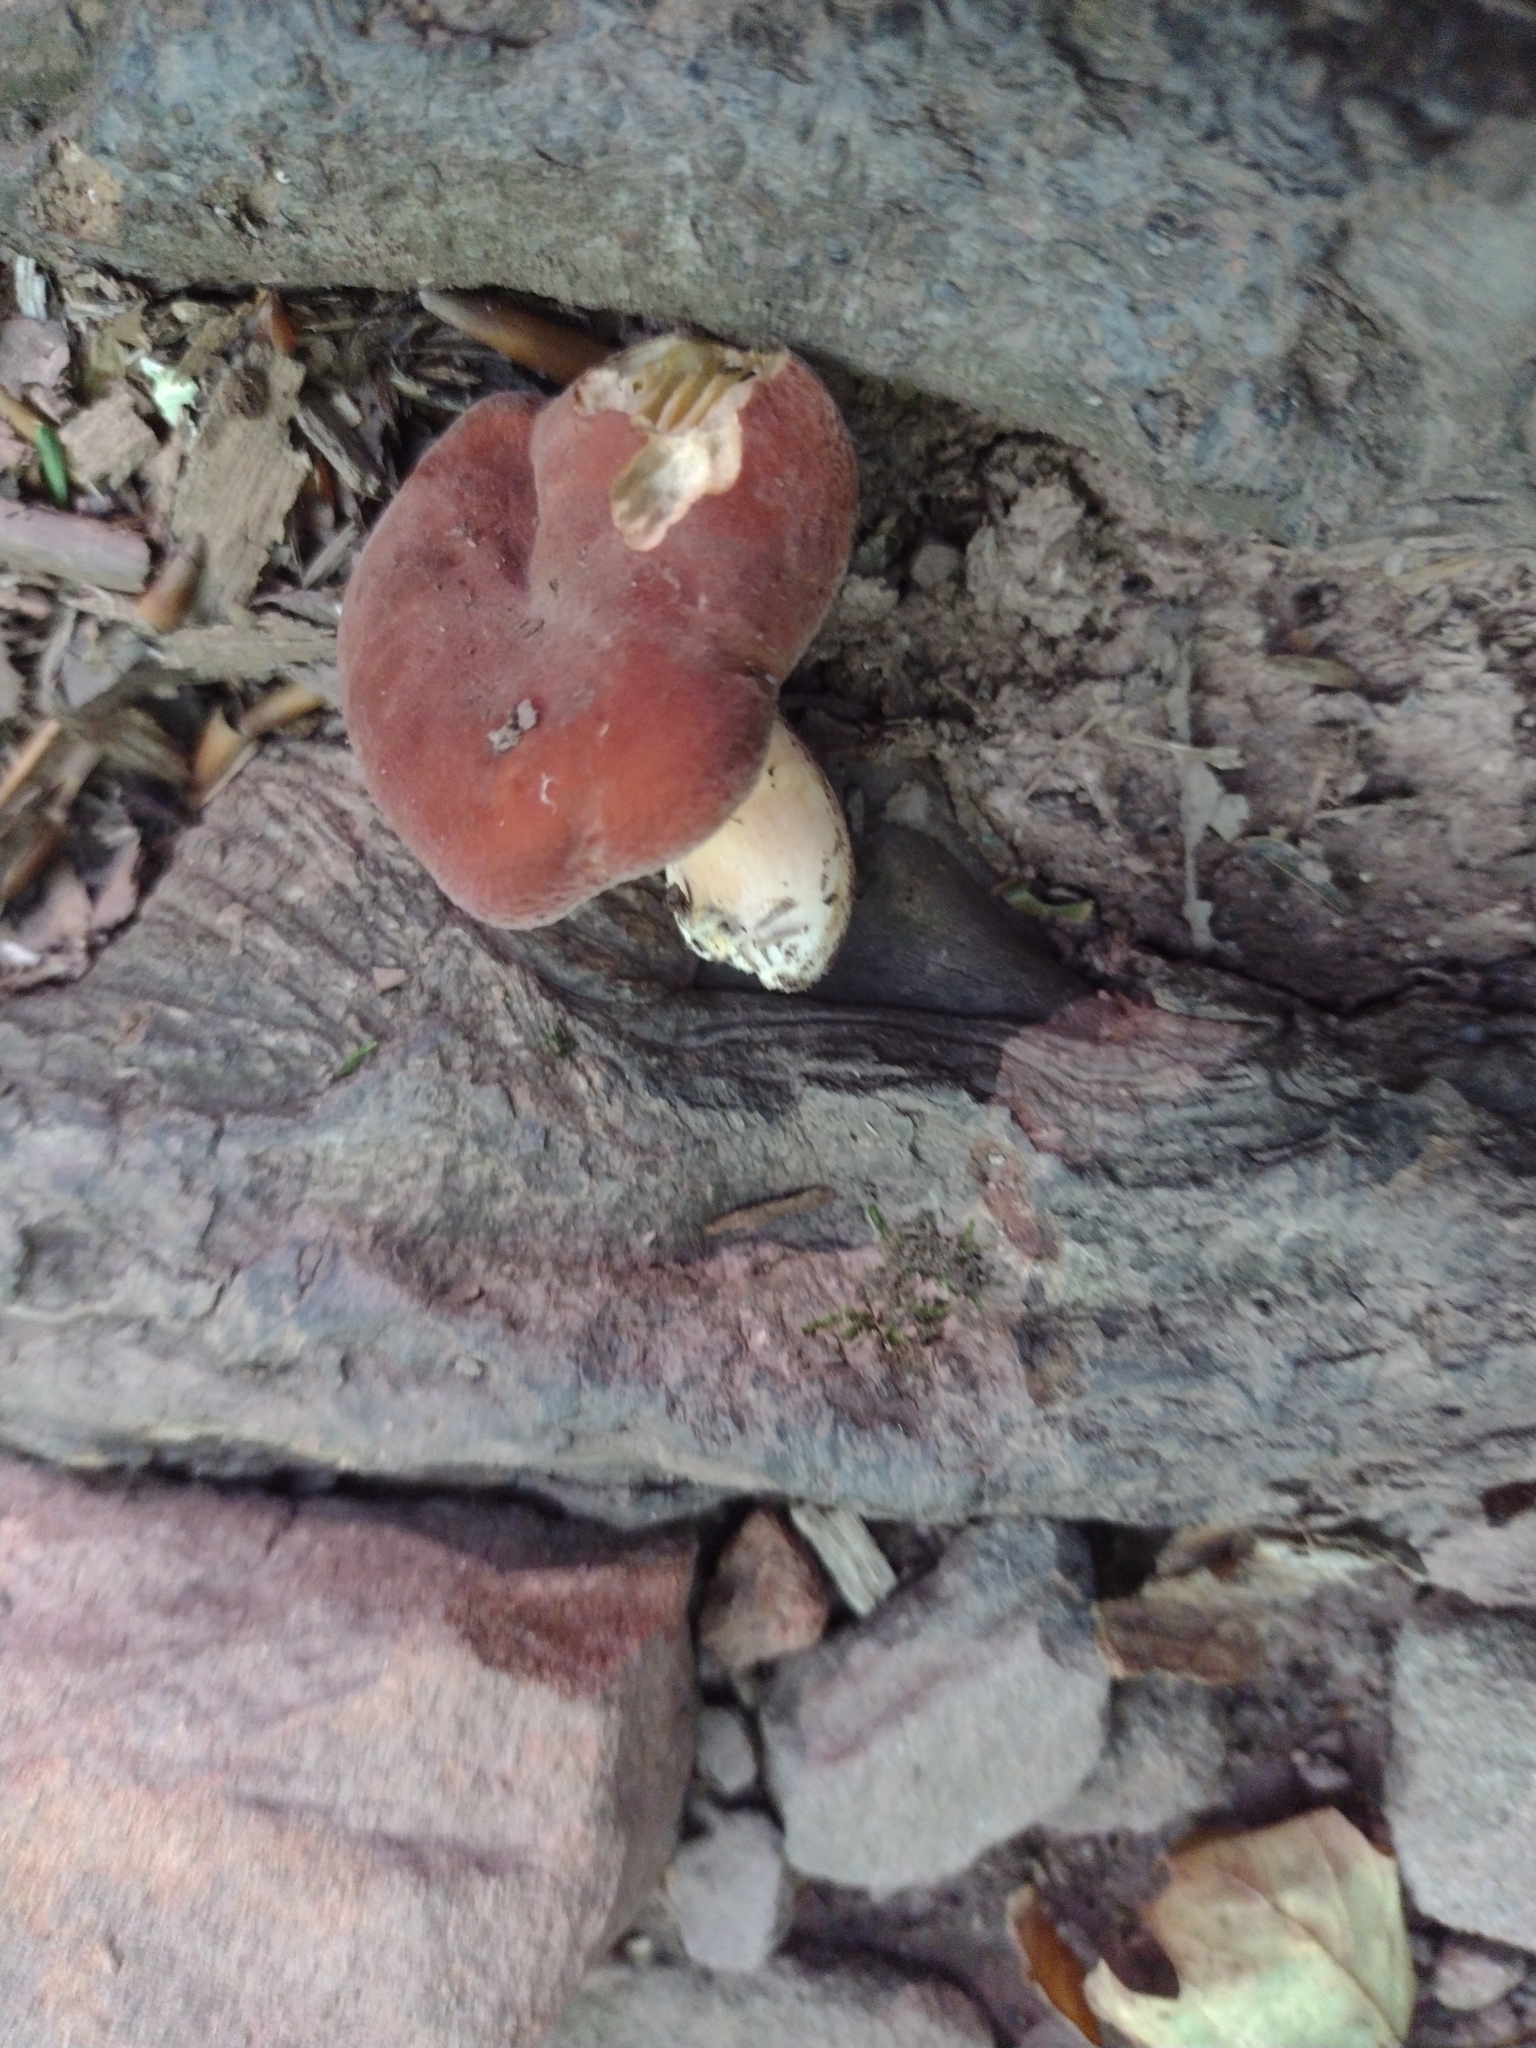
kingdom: Fungi
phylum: Basidiomycota
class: Agaricomycetes
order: Russulales
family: Russulaceae
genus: Lactarius
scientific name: Lactarius hygrophoroides
